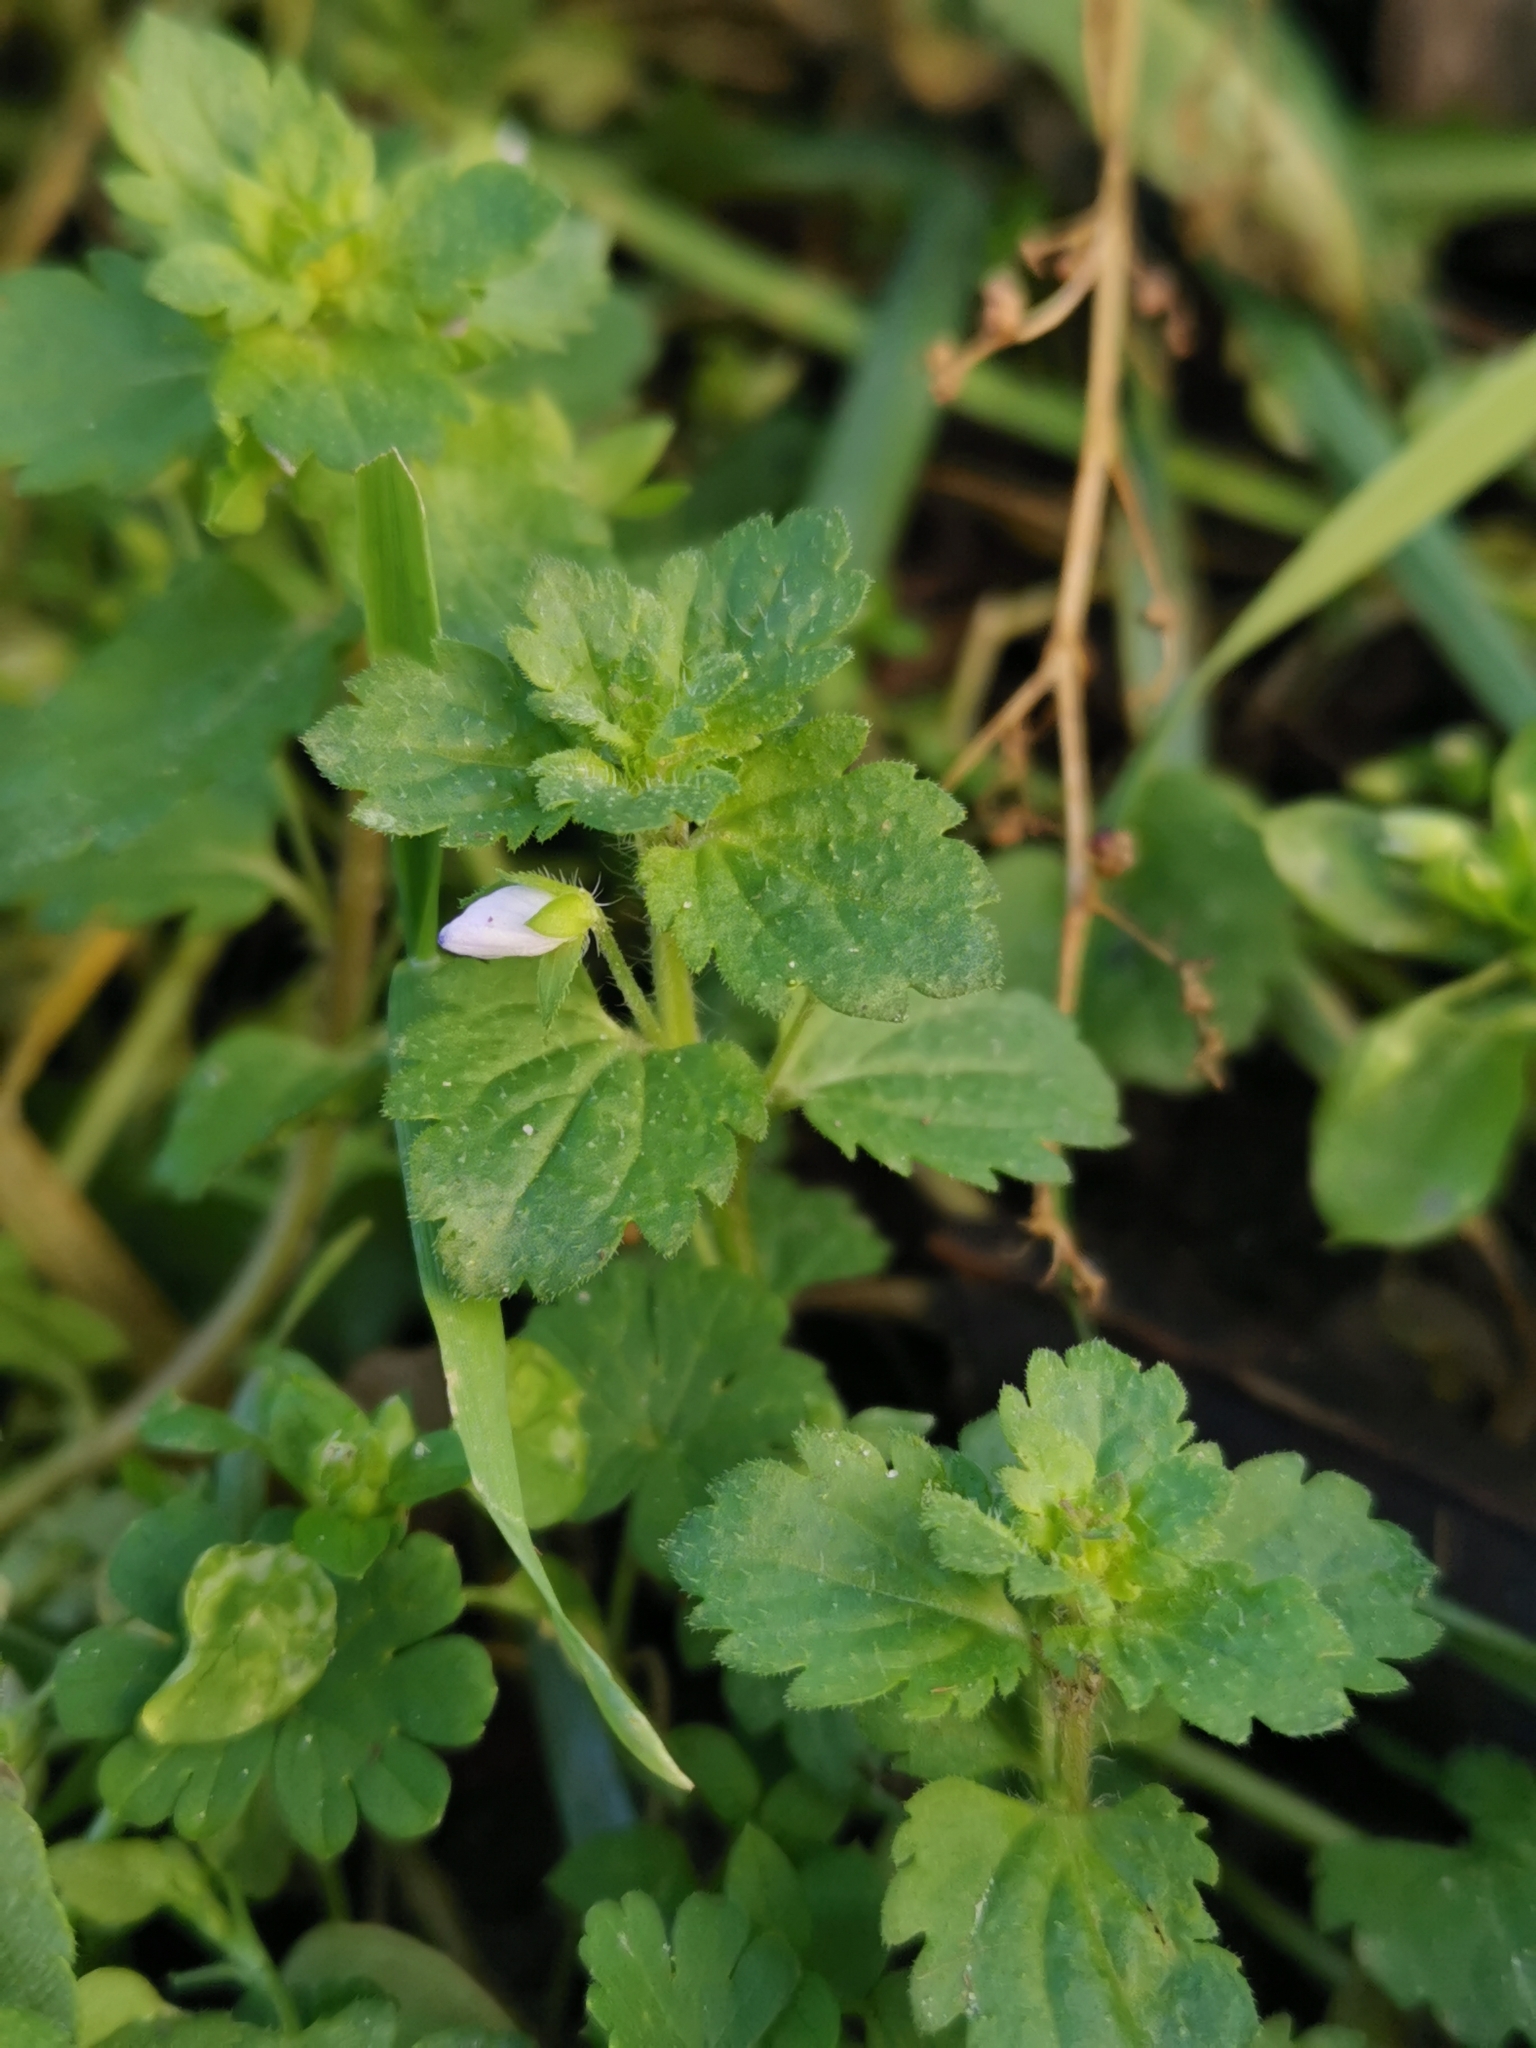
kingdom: Plantae
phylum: Tracheophyta
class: Magnoliopsida
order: Lamiales
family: Plantaginaceae
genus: Veronica
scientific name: Veronica persica
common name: Common field-speedwell
